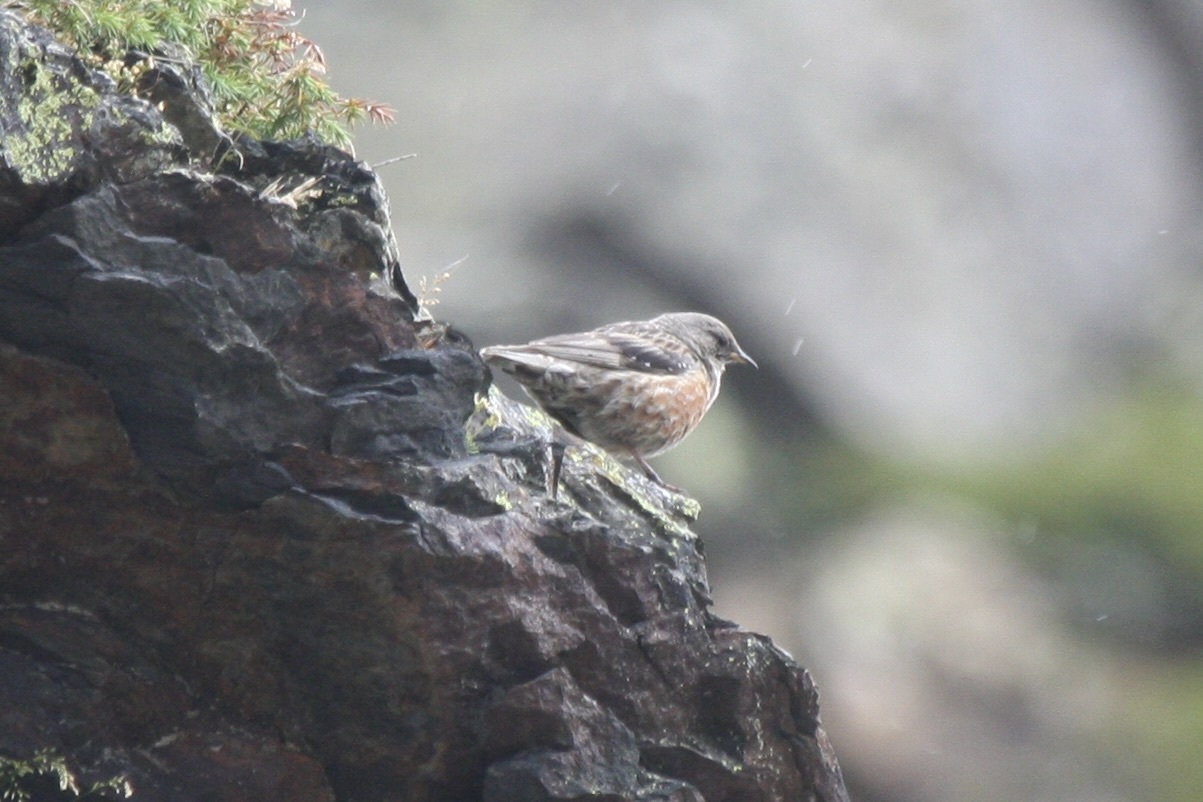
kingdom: Animalia
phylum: Chordata
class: Aves
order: Passeriformes
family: Prunellidae
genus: Prunella
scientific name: Prunella collaris
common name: Alpine accentor
